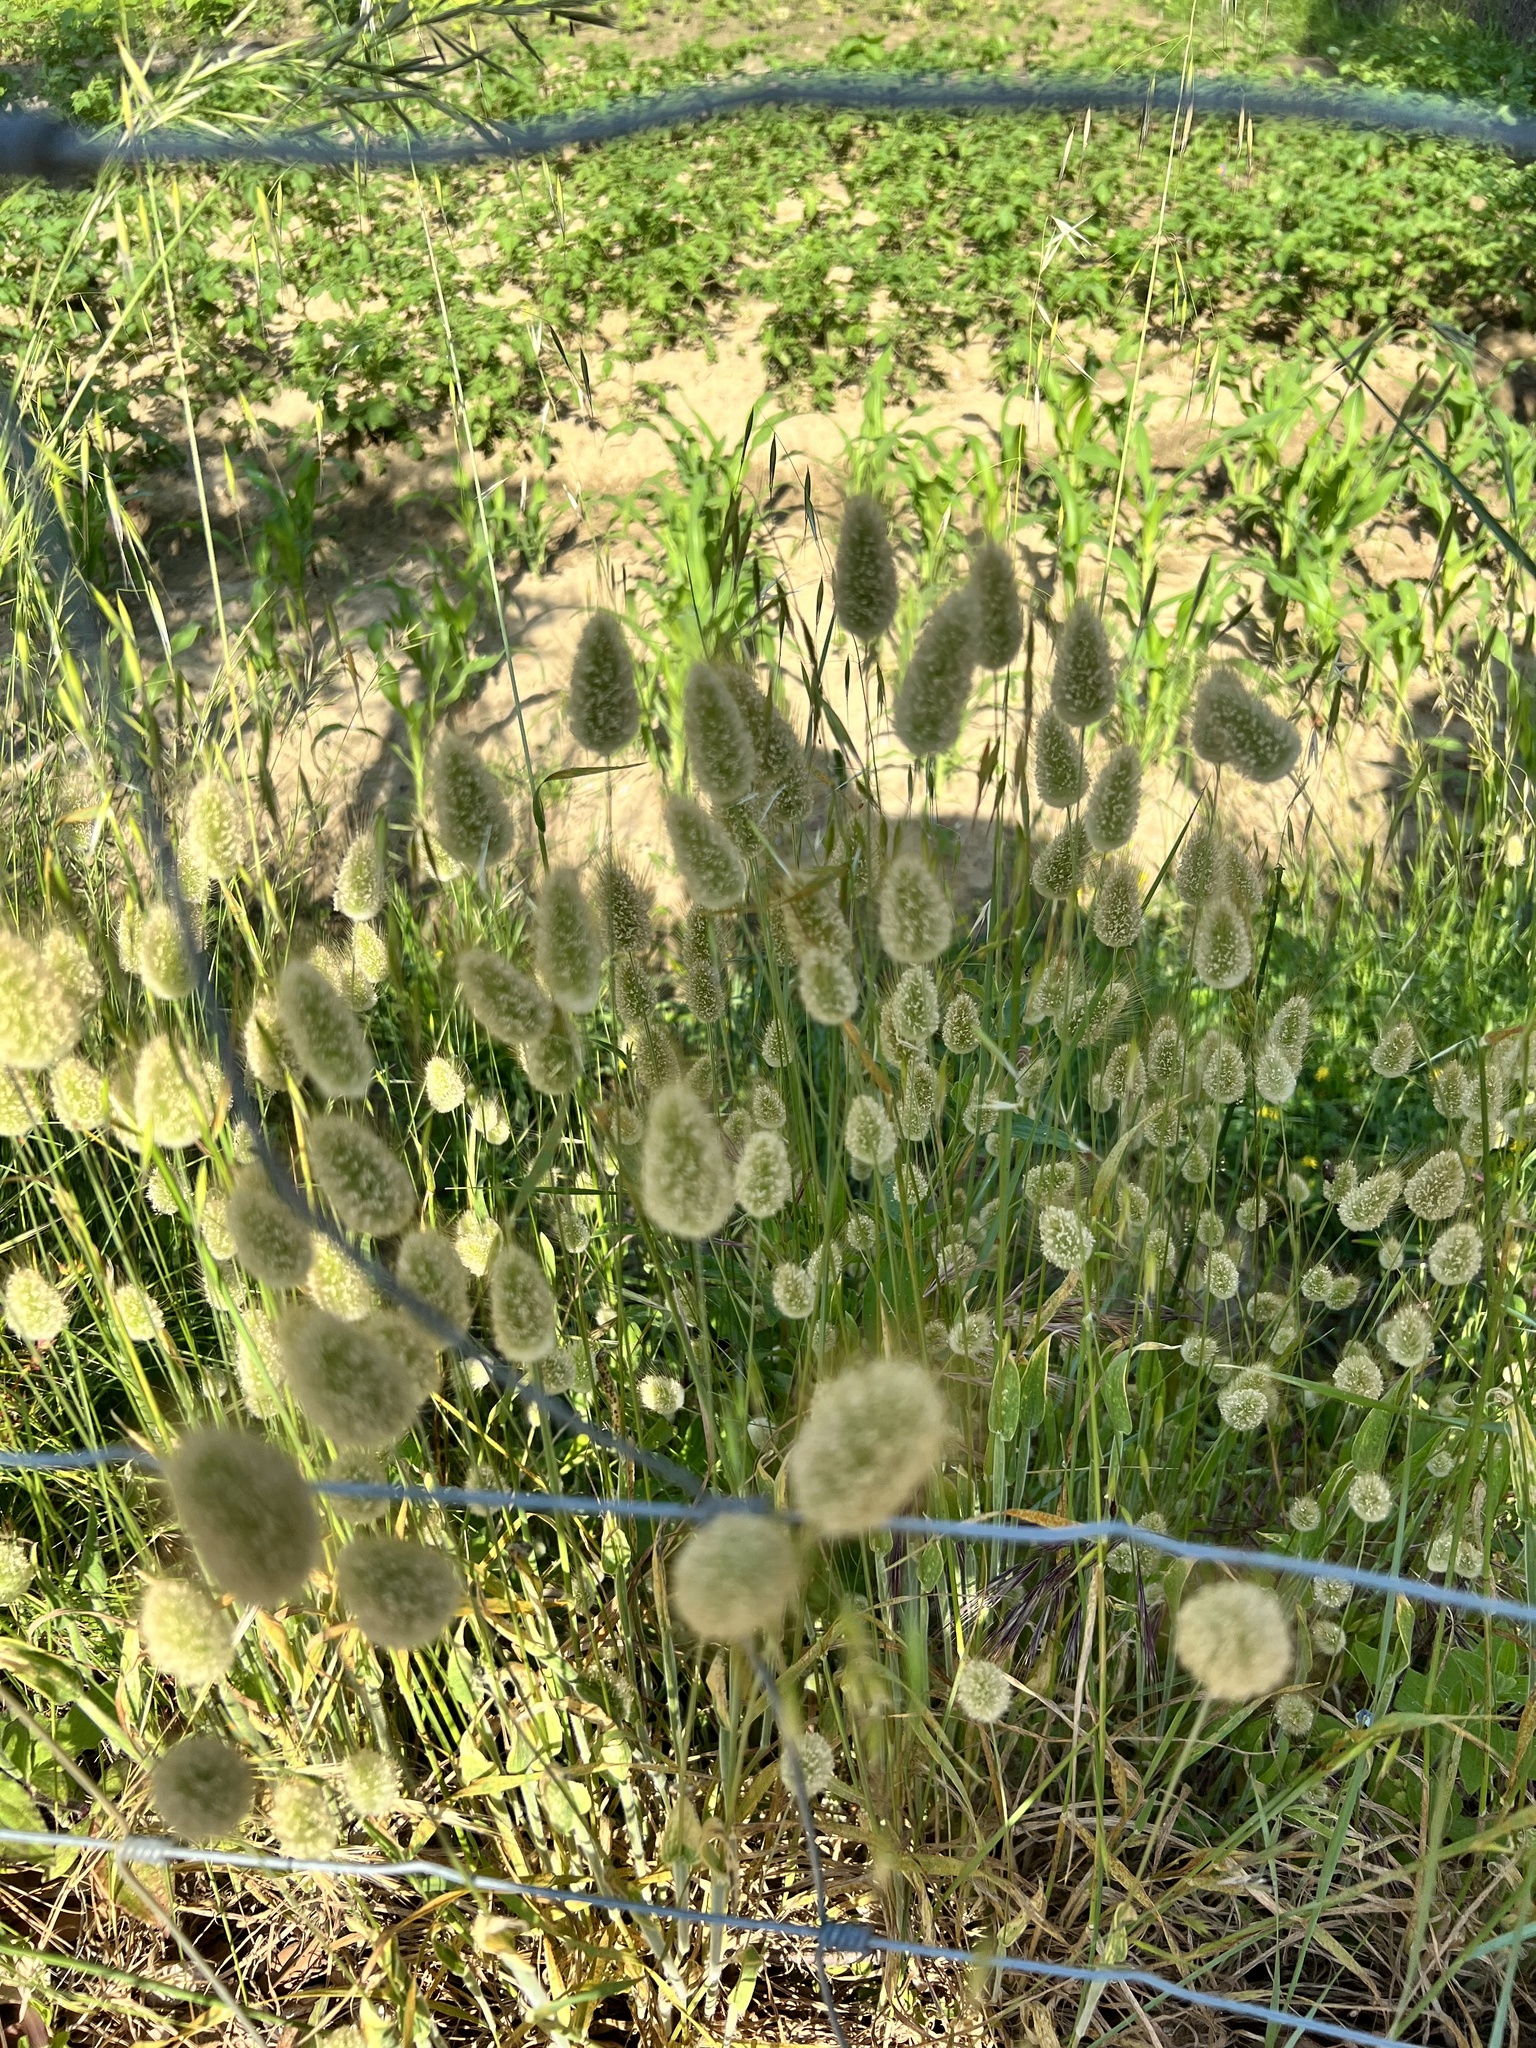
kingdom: Plantae
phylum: Tracheophyta
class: Liliopsida
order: Poales
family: Poaceae
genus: Lagurus
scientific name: Lagurus ovatus
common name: Hare's-tail
